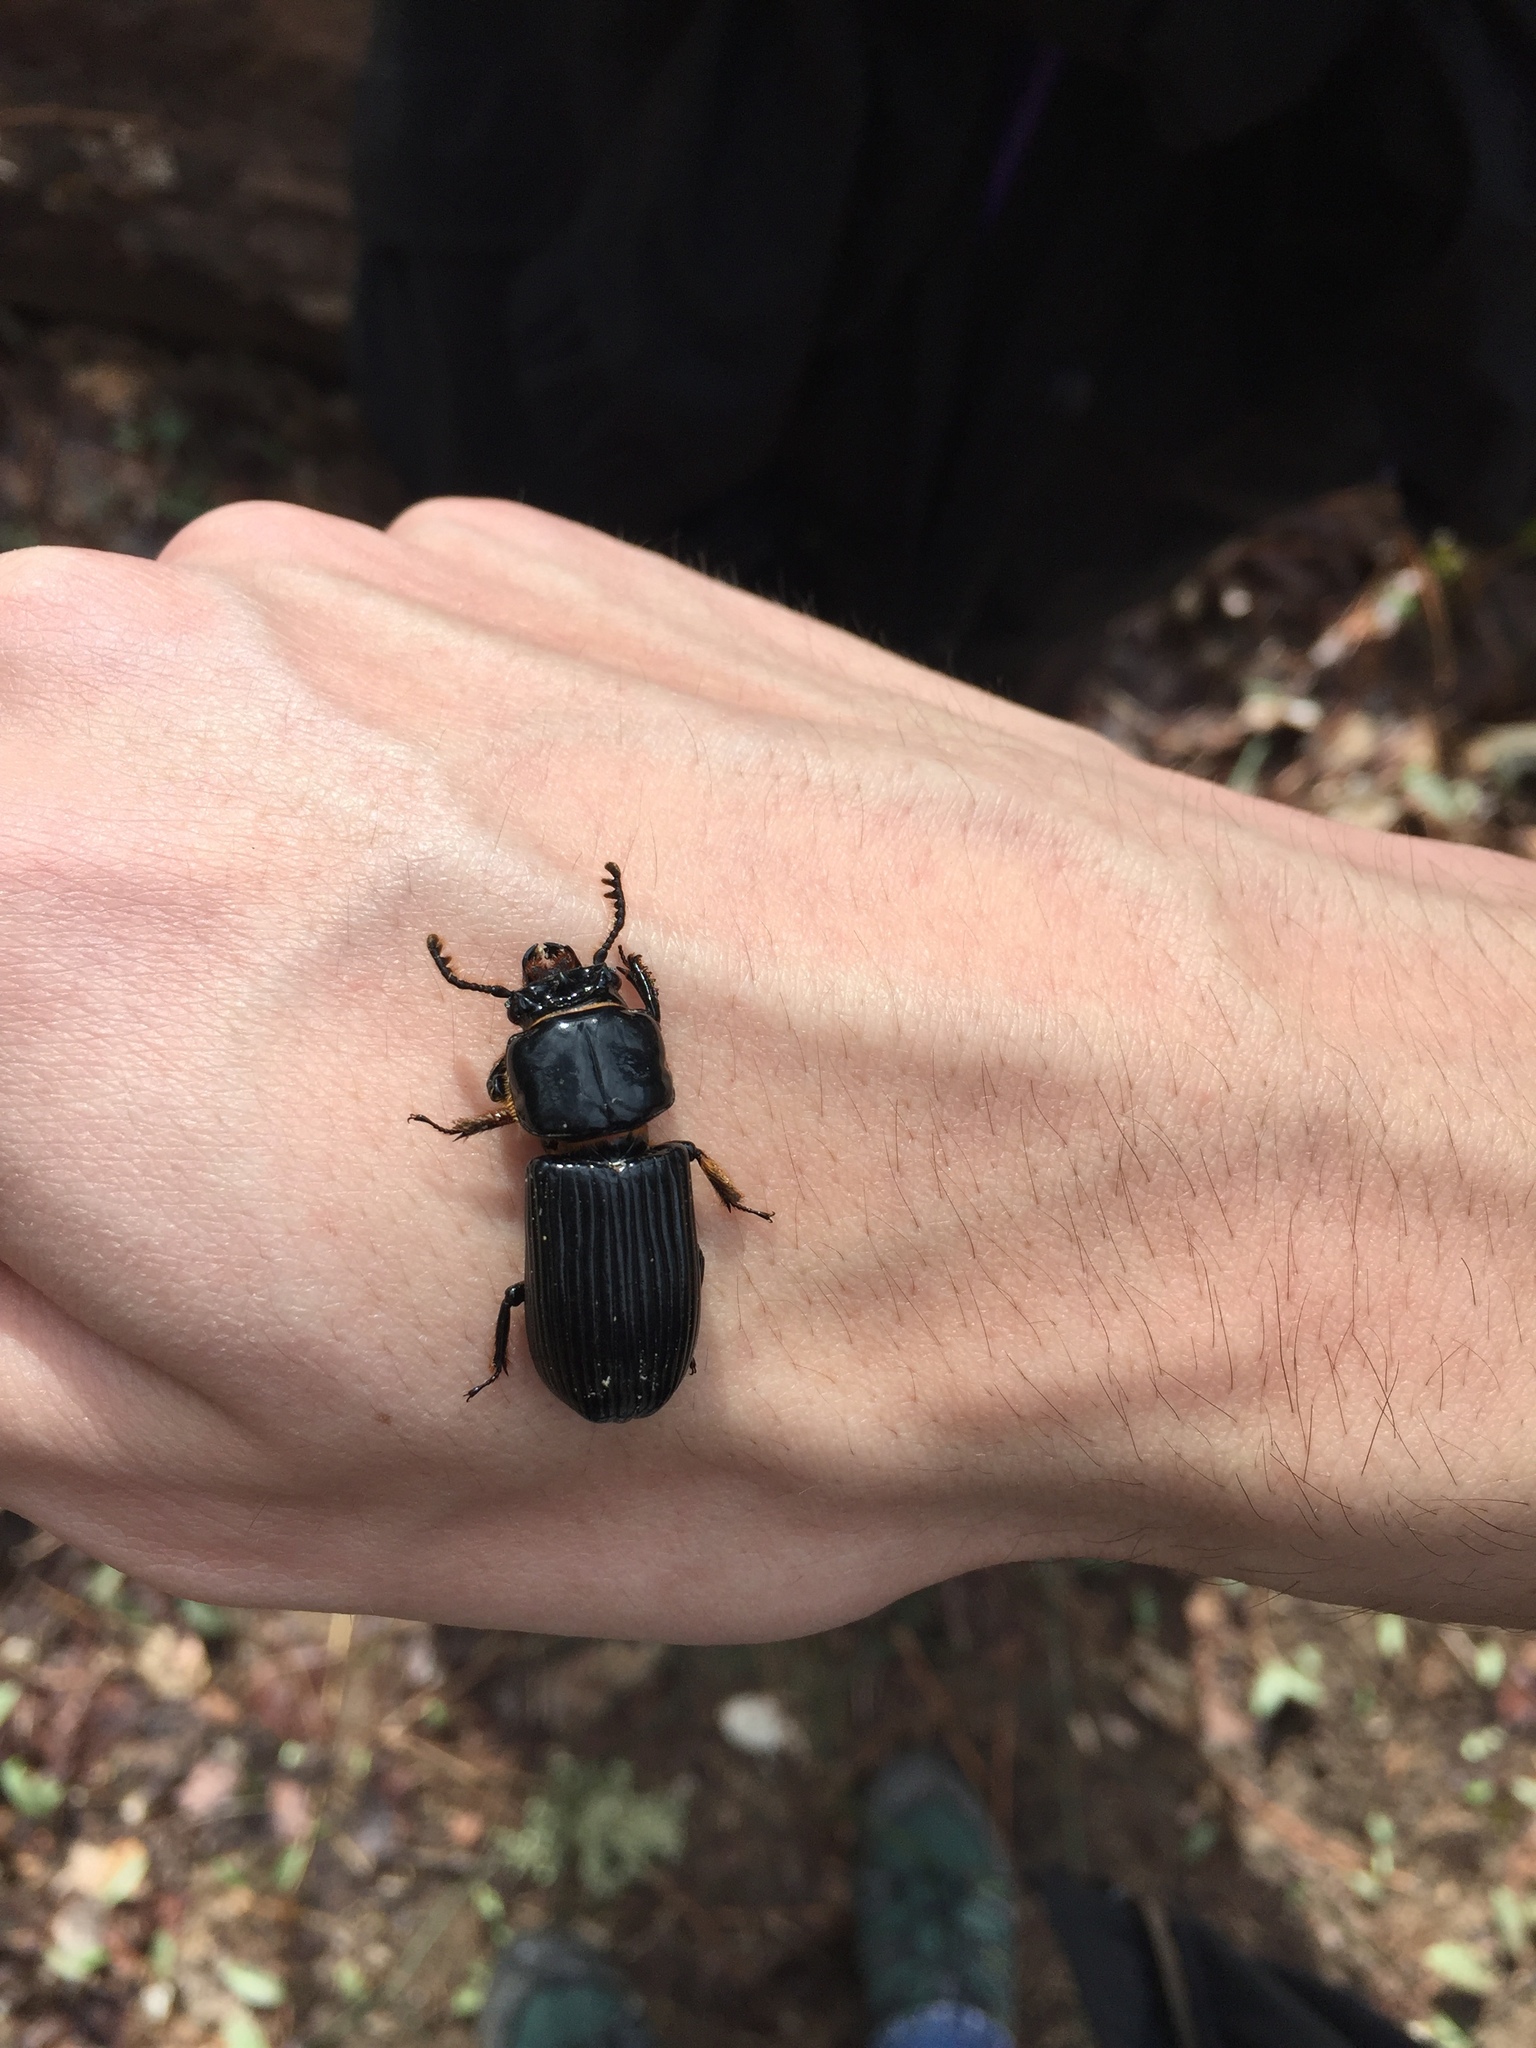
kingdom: Animalia
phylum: Arthropoda
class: Insecta
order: Coleoptera
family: Passalidae
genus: Odontotaenius
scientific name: Odontotaenius disjunctus
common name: Patent leather beetle
